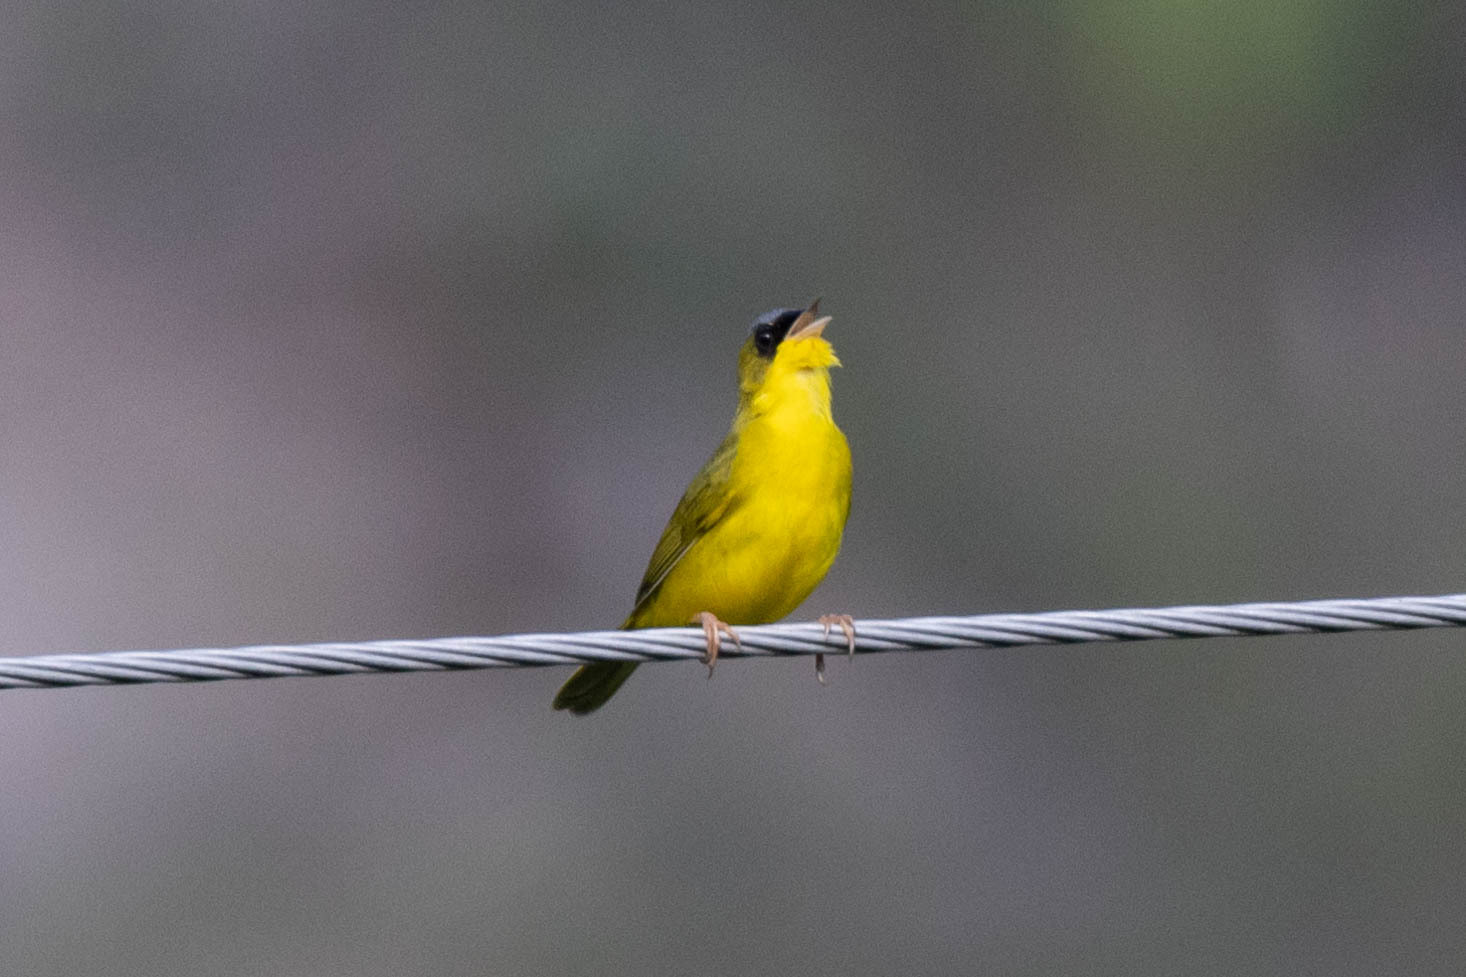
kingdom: Animalia
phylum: Chordata
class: Aves
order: Passeriformes
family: Parulidae
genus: Geothlypis
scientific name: Geothlypis auricularis
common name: Black-lored yellowthroat
